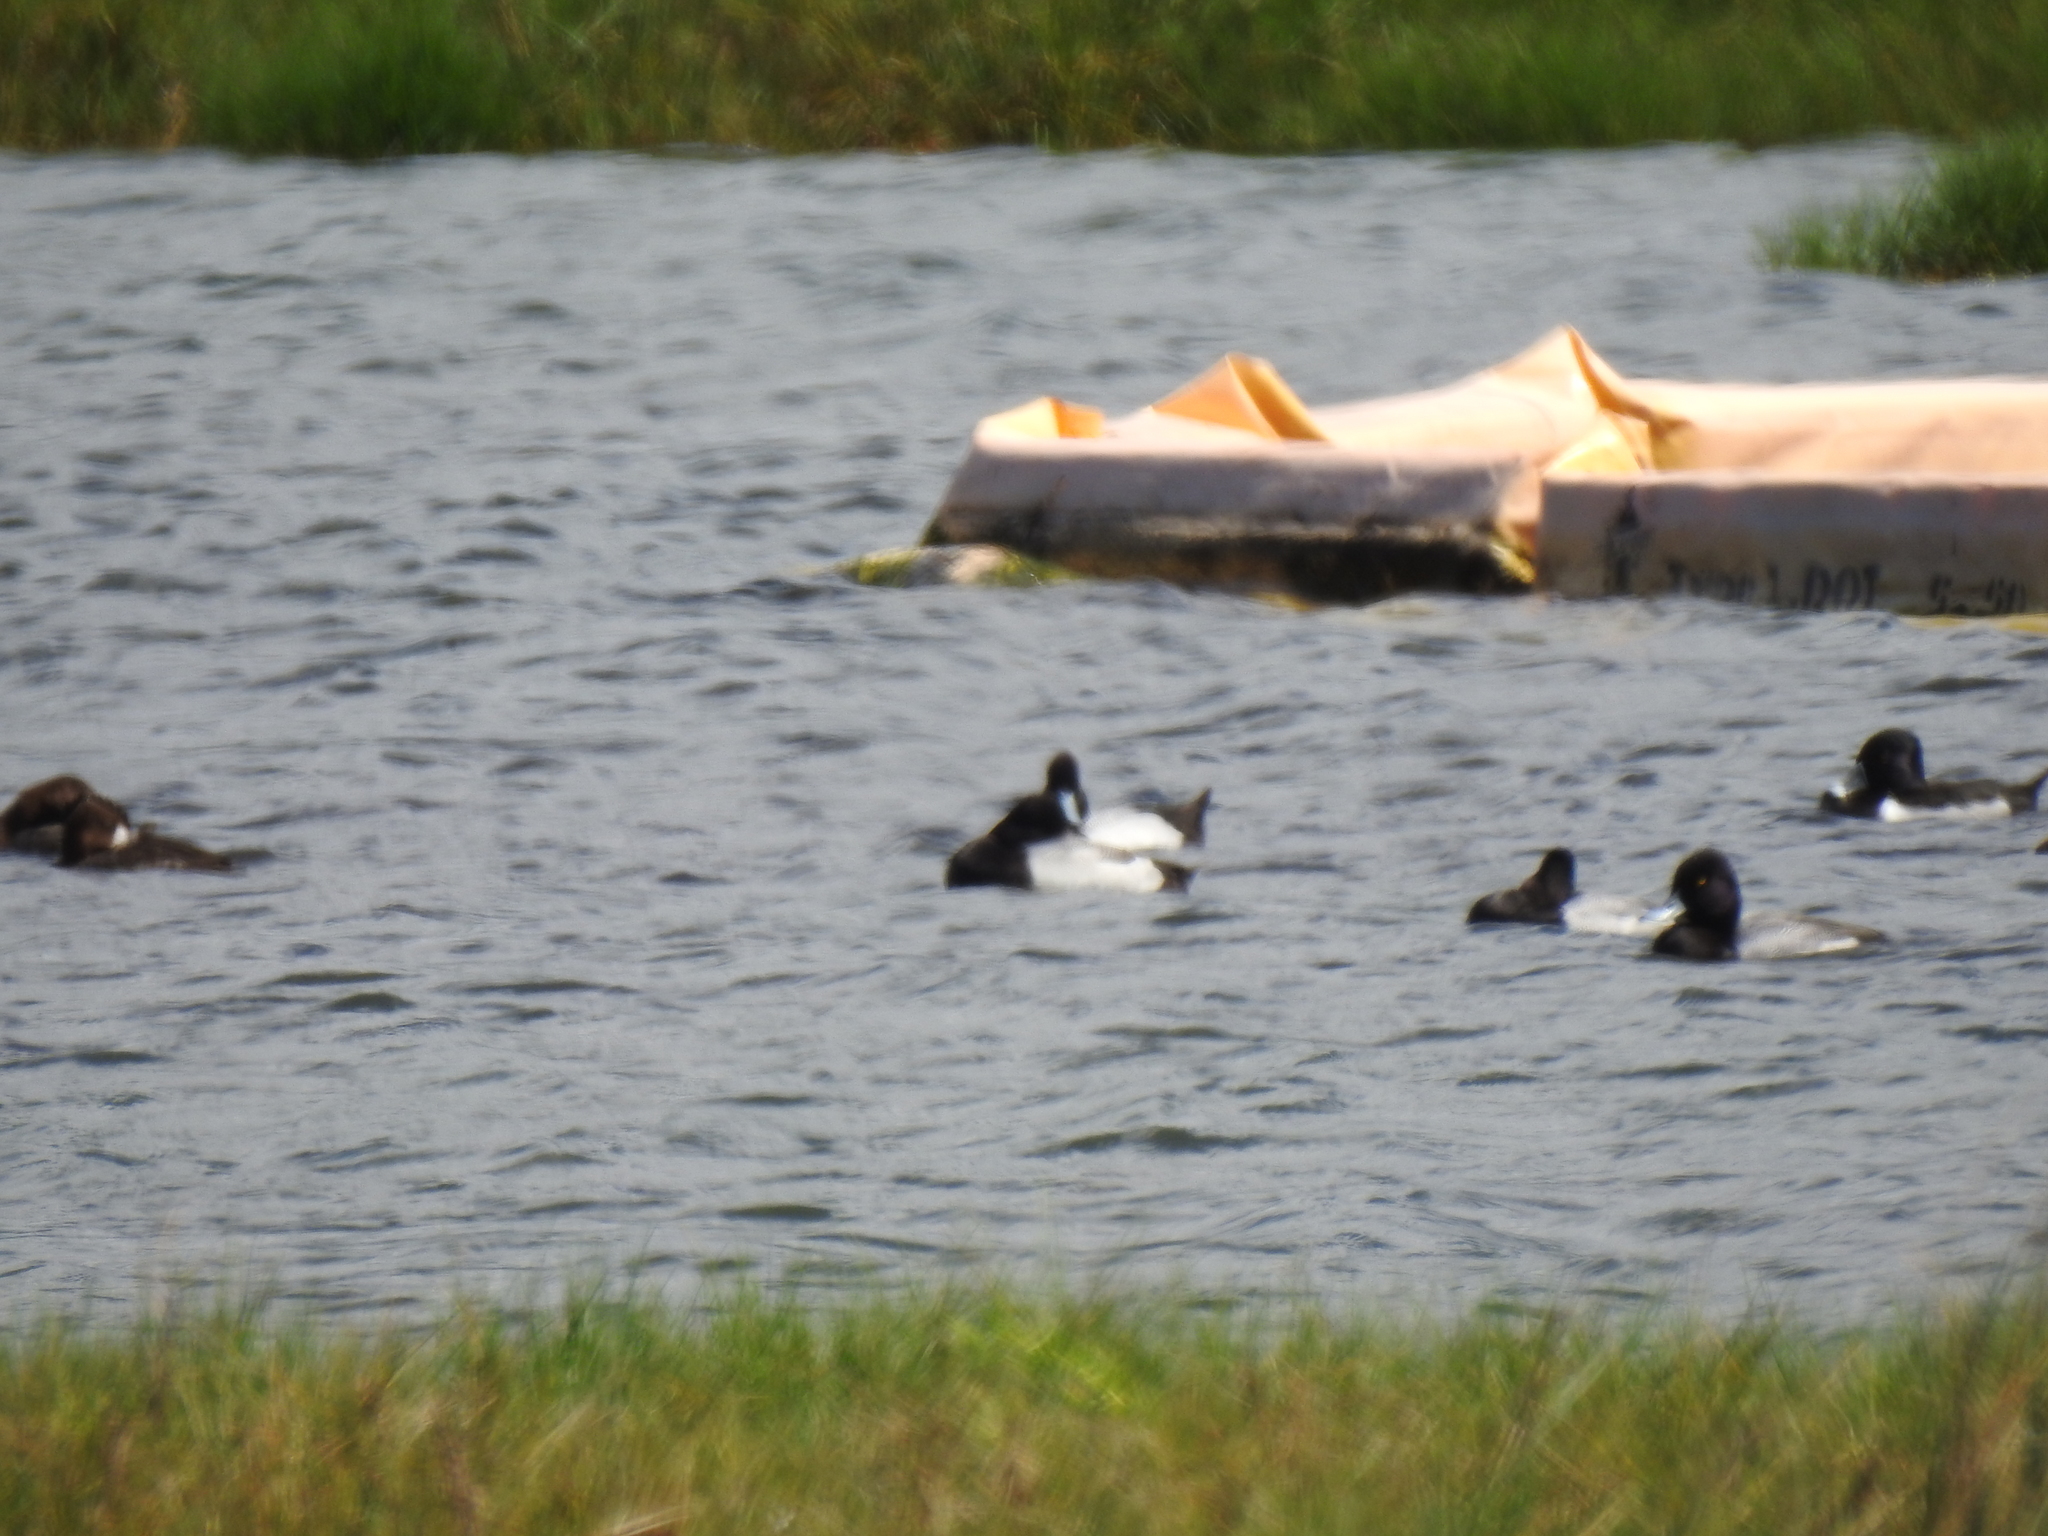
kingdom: Animalia
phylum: Chordata
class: Aves
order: Anseriformes
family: Anatidae
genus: Aythya
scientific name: Aythya affinis
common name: Lesser scaup
